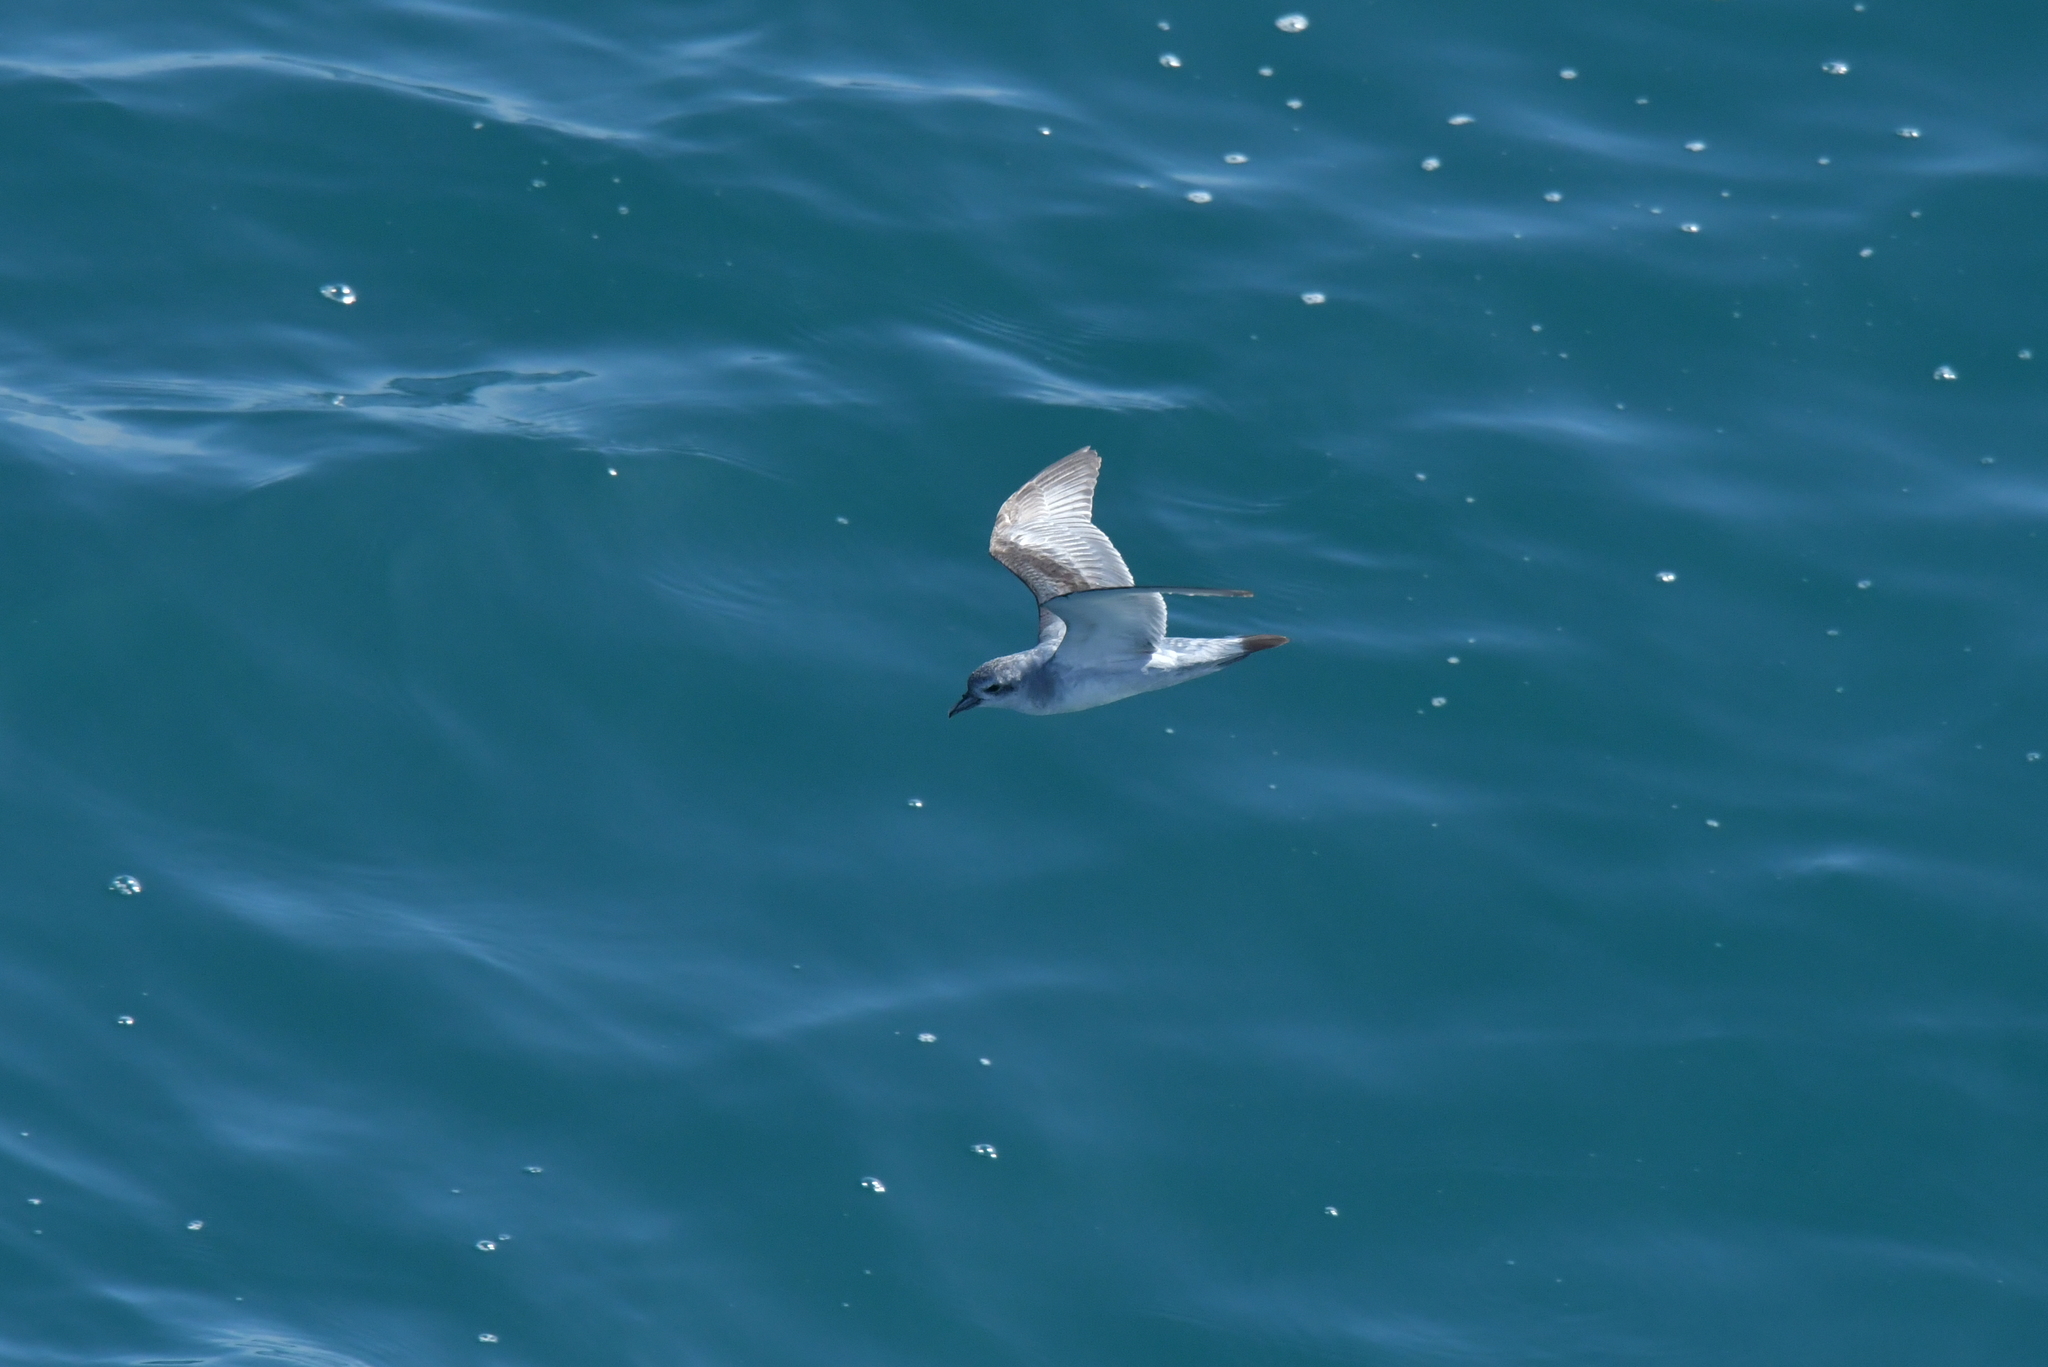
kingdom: Animalia
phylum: Chordata
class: Aves
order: Procellariiformes
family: Procellariidae
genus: Pachyptila
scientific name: Pachyptila turtur
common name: Fairy prion
